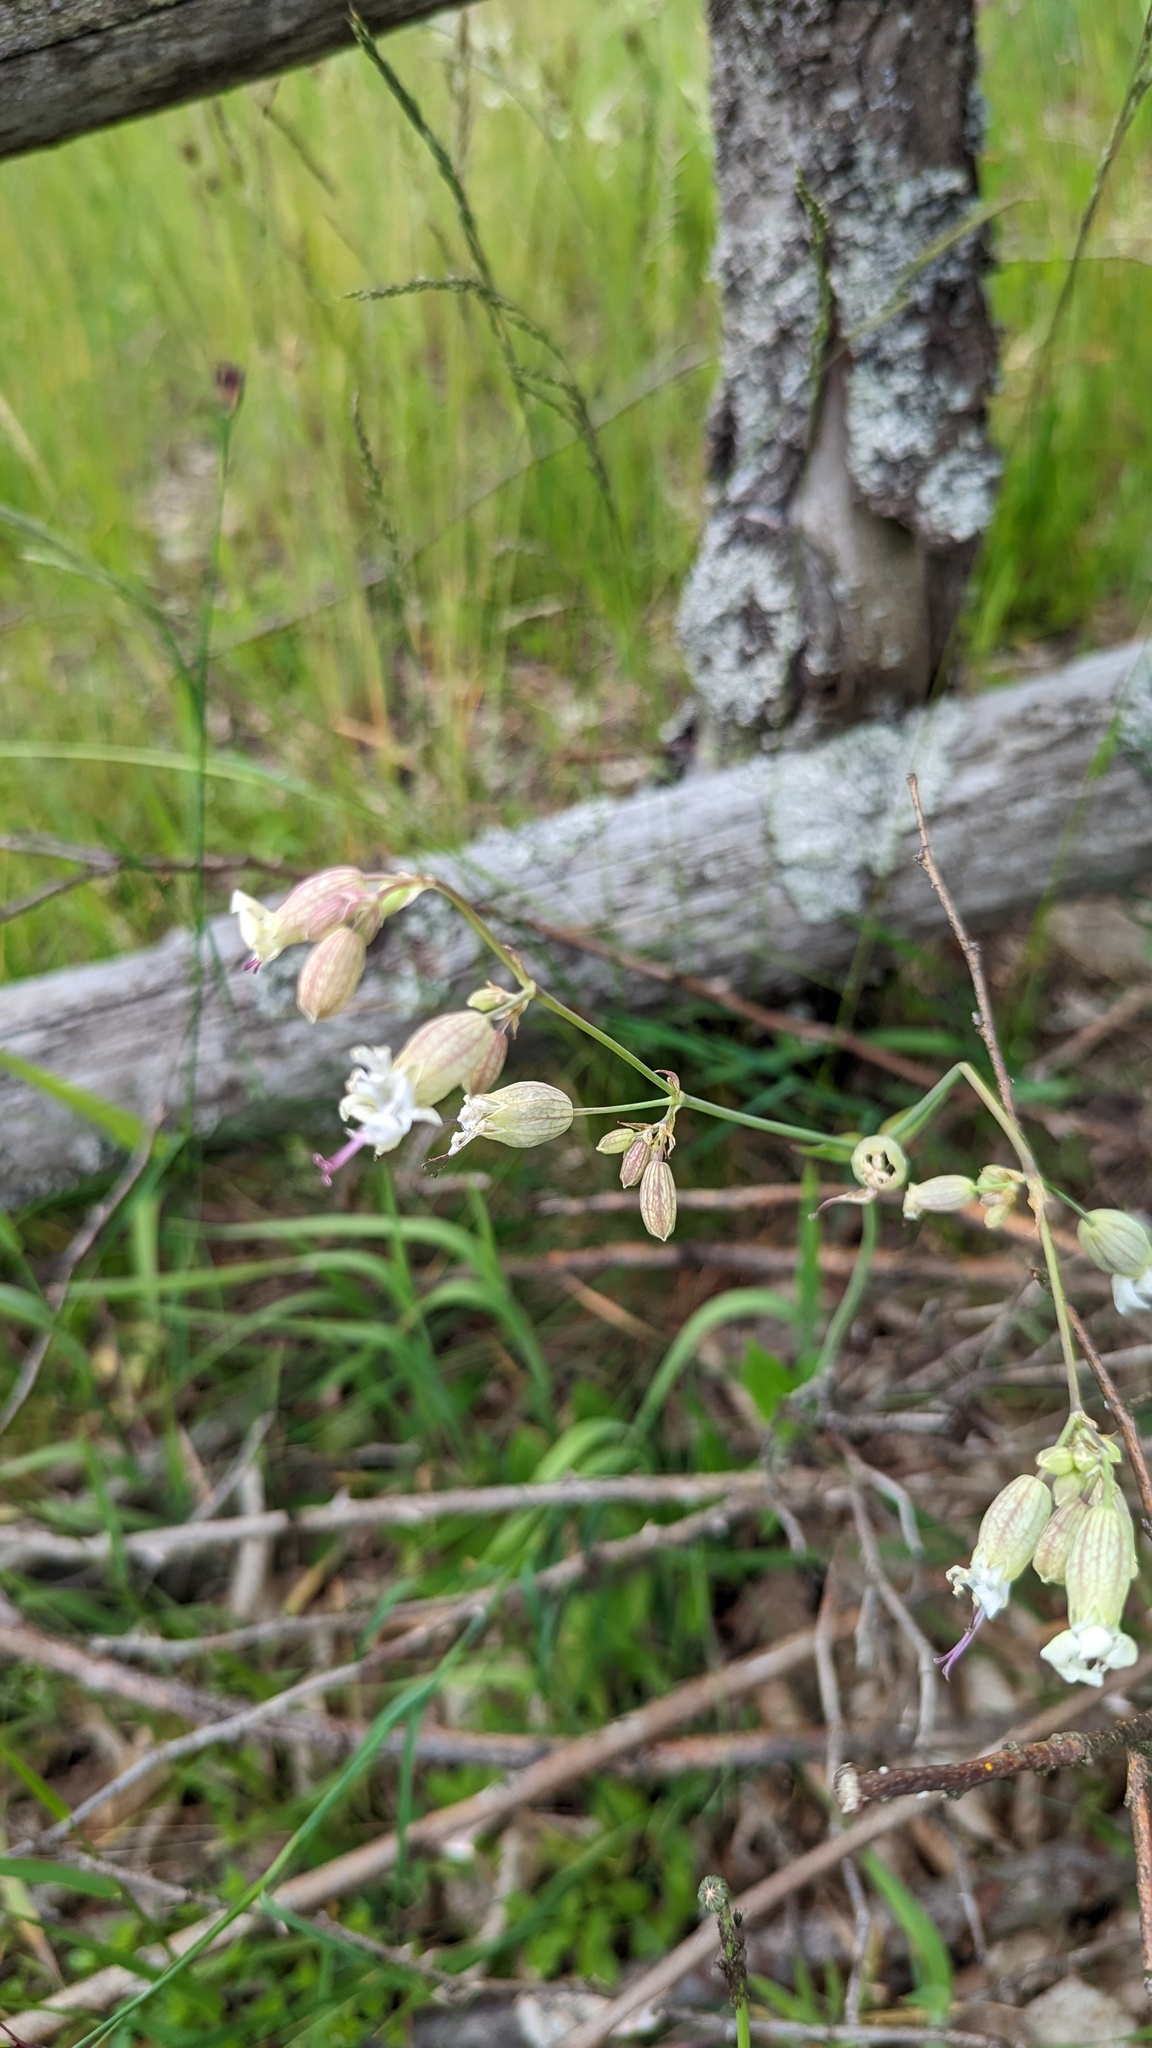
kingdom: Plantae
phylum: Tracheophyta
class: Magnoliopsida
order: Caryophyllales
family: Caryophyllaceae
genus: Silene
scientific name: Silene vulgaris
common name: Bladder campion
